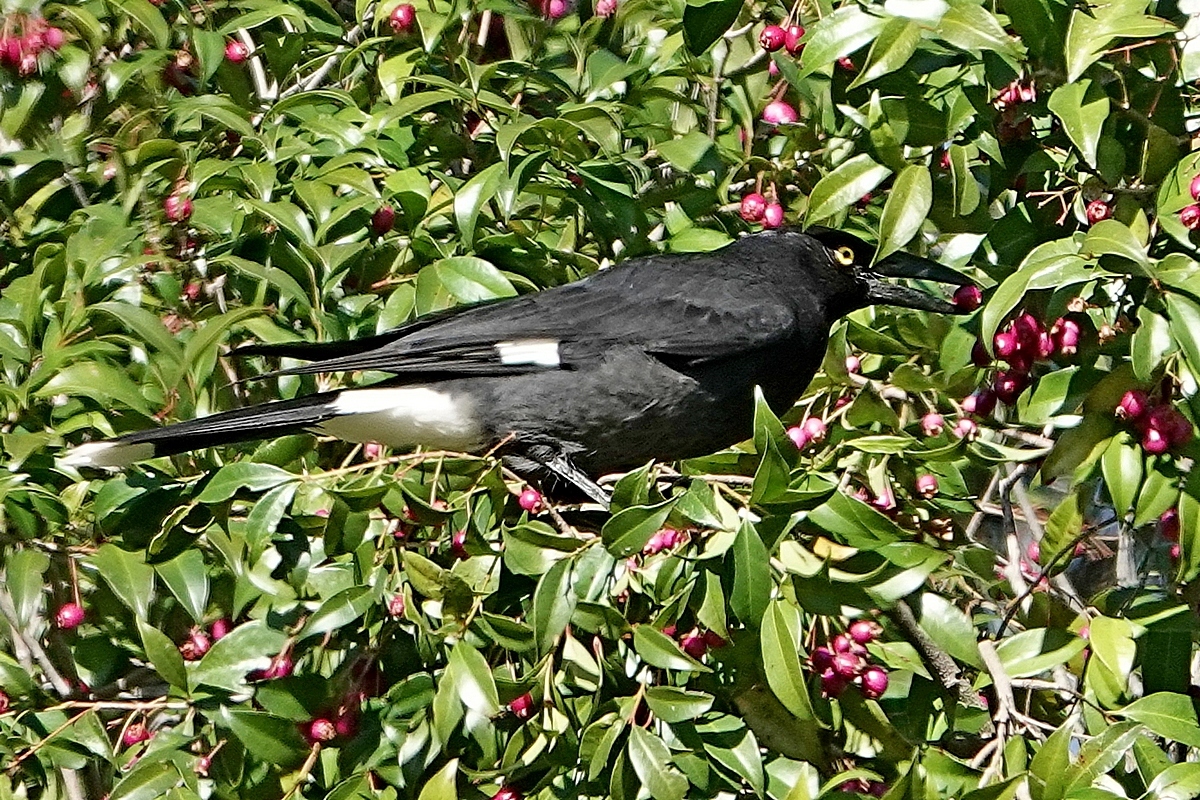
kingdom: Animalia
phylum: Chordata
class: Aves
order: Passeriformes
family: Cracticidae
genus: Strepera
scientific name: Strepera graculina
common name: Pied currawong
